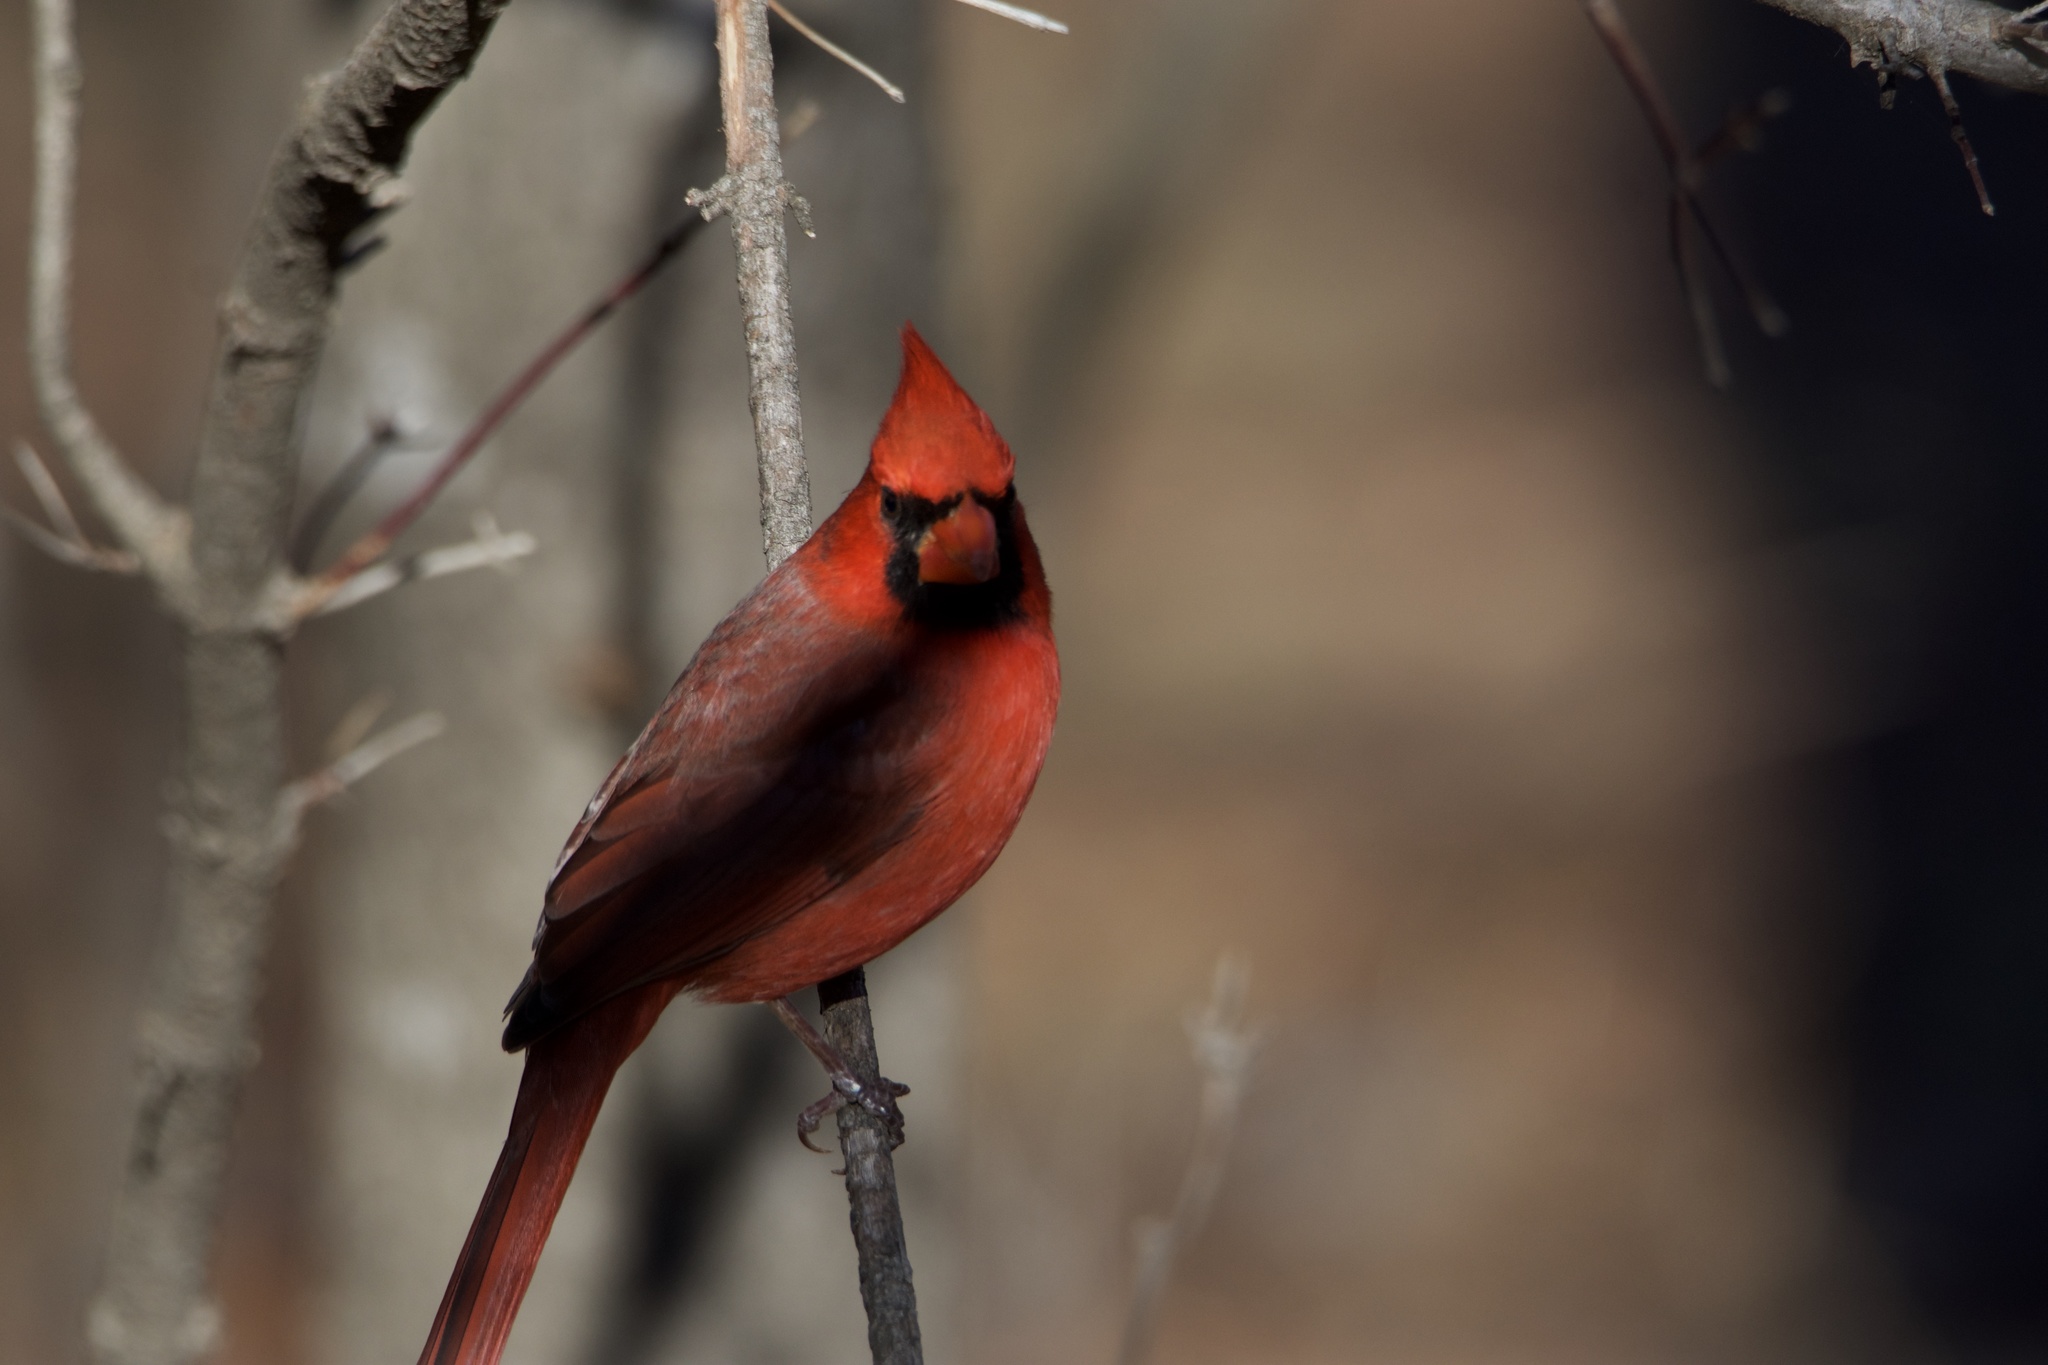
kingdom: Animalia
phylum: Chordata
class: Aves
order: Passeriformes
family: Cardinalidae
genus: Cardinalis
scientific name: Cardinalis cardinalis
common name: Northern cardinal
